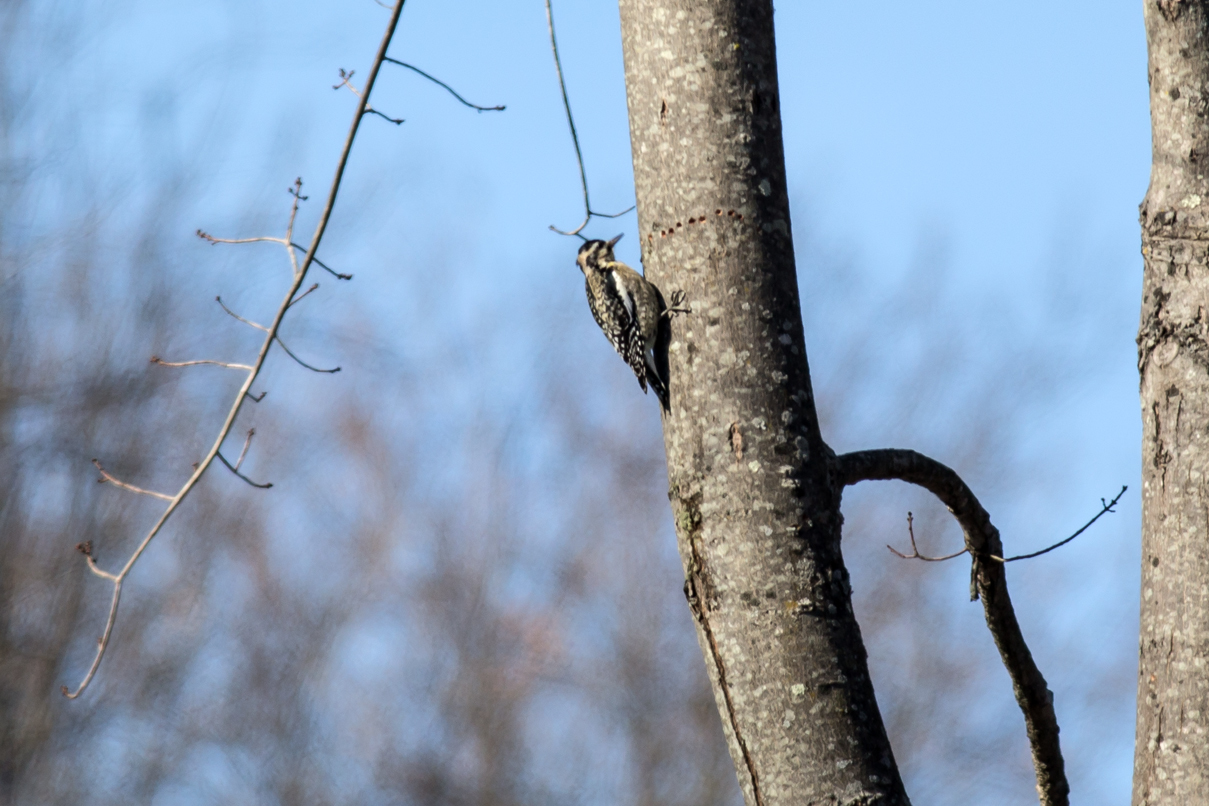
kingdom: Animalia
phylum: Chordata
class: Aves
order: Piciformes
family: Picidae
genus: Sphyrapicus
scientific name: Sphyrapicus varius
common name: Yellow-bellied sapsucker
